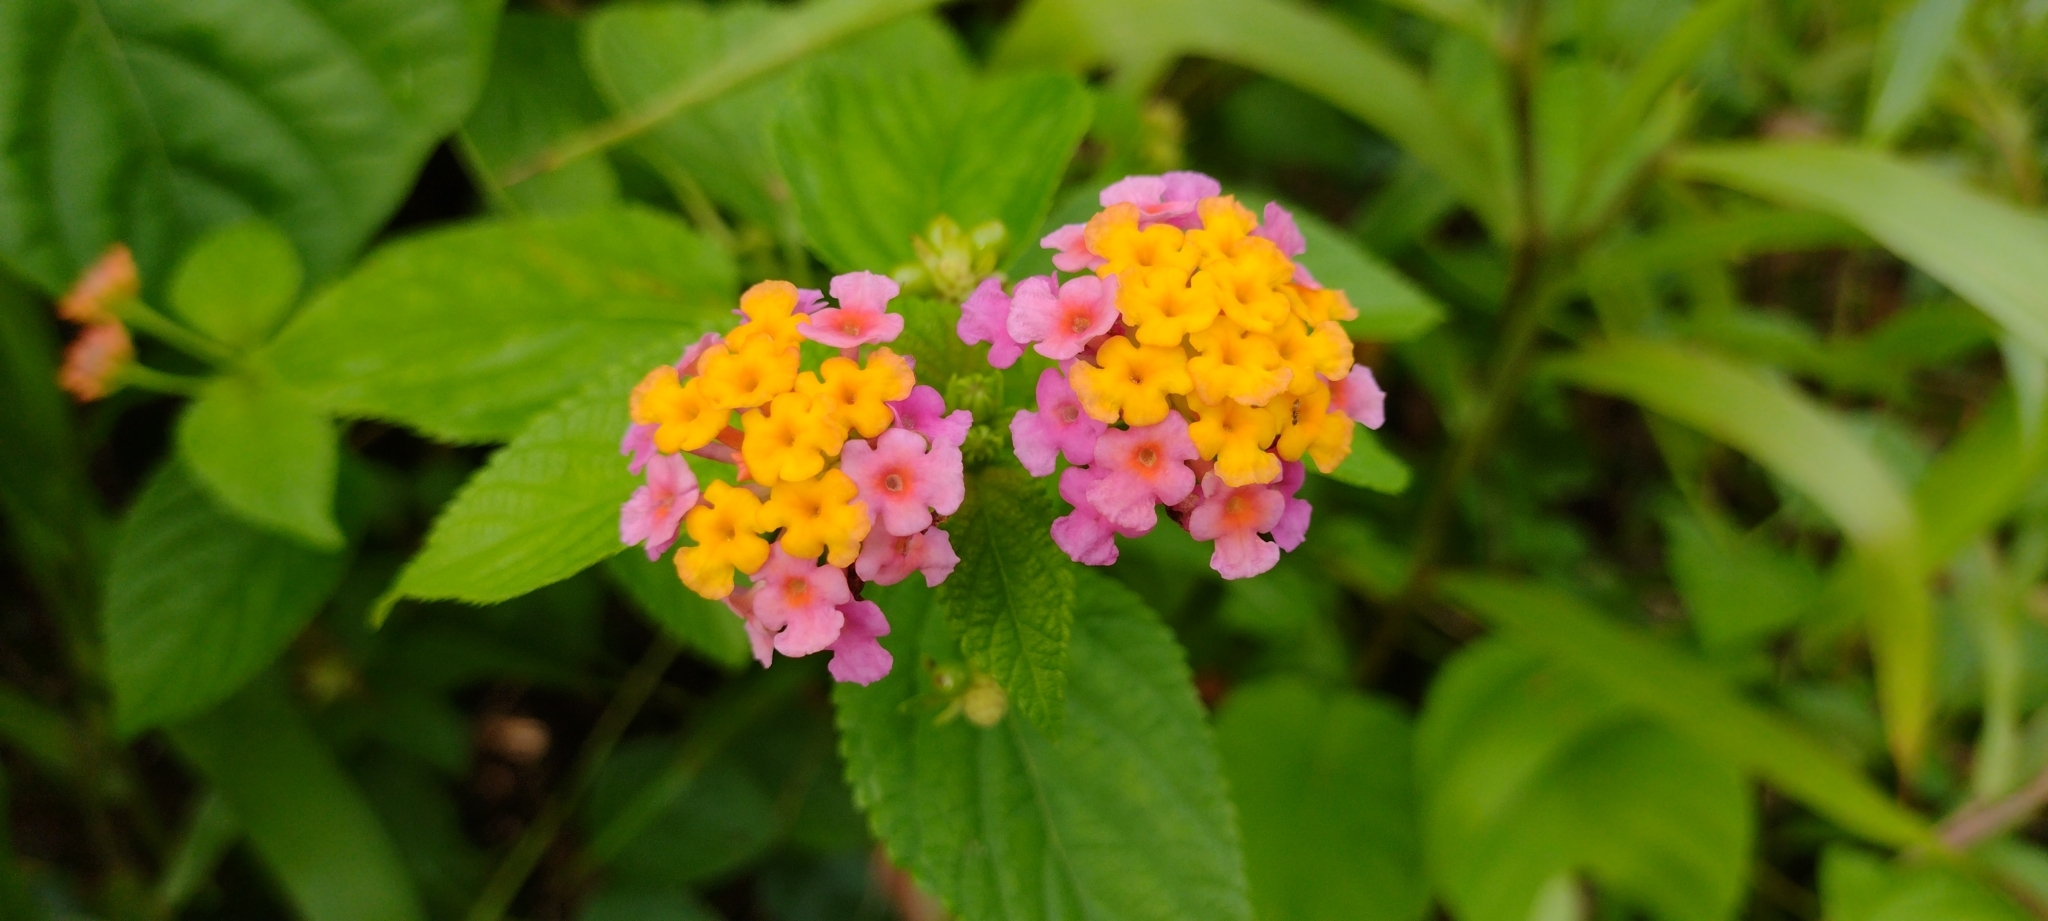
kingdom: Plantae
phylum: Tracheophyta
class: Magnoliopsida
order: Lamiales
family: Verbenaceae
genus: Lantana
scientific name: Lantana camara
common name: Lantana
